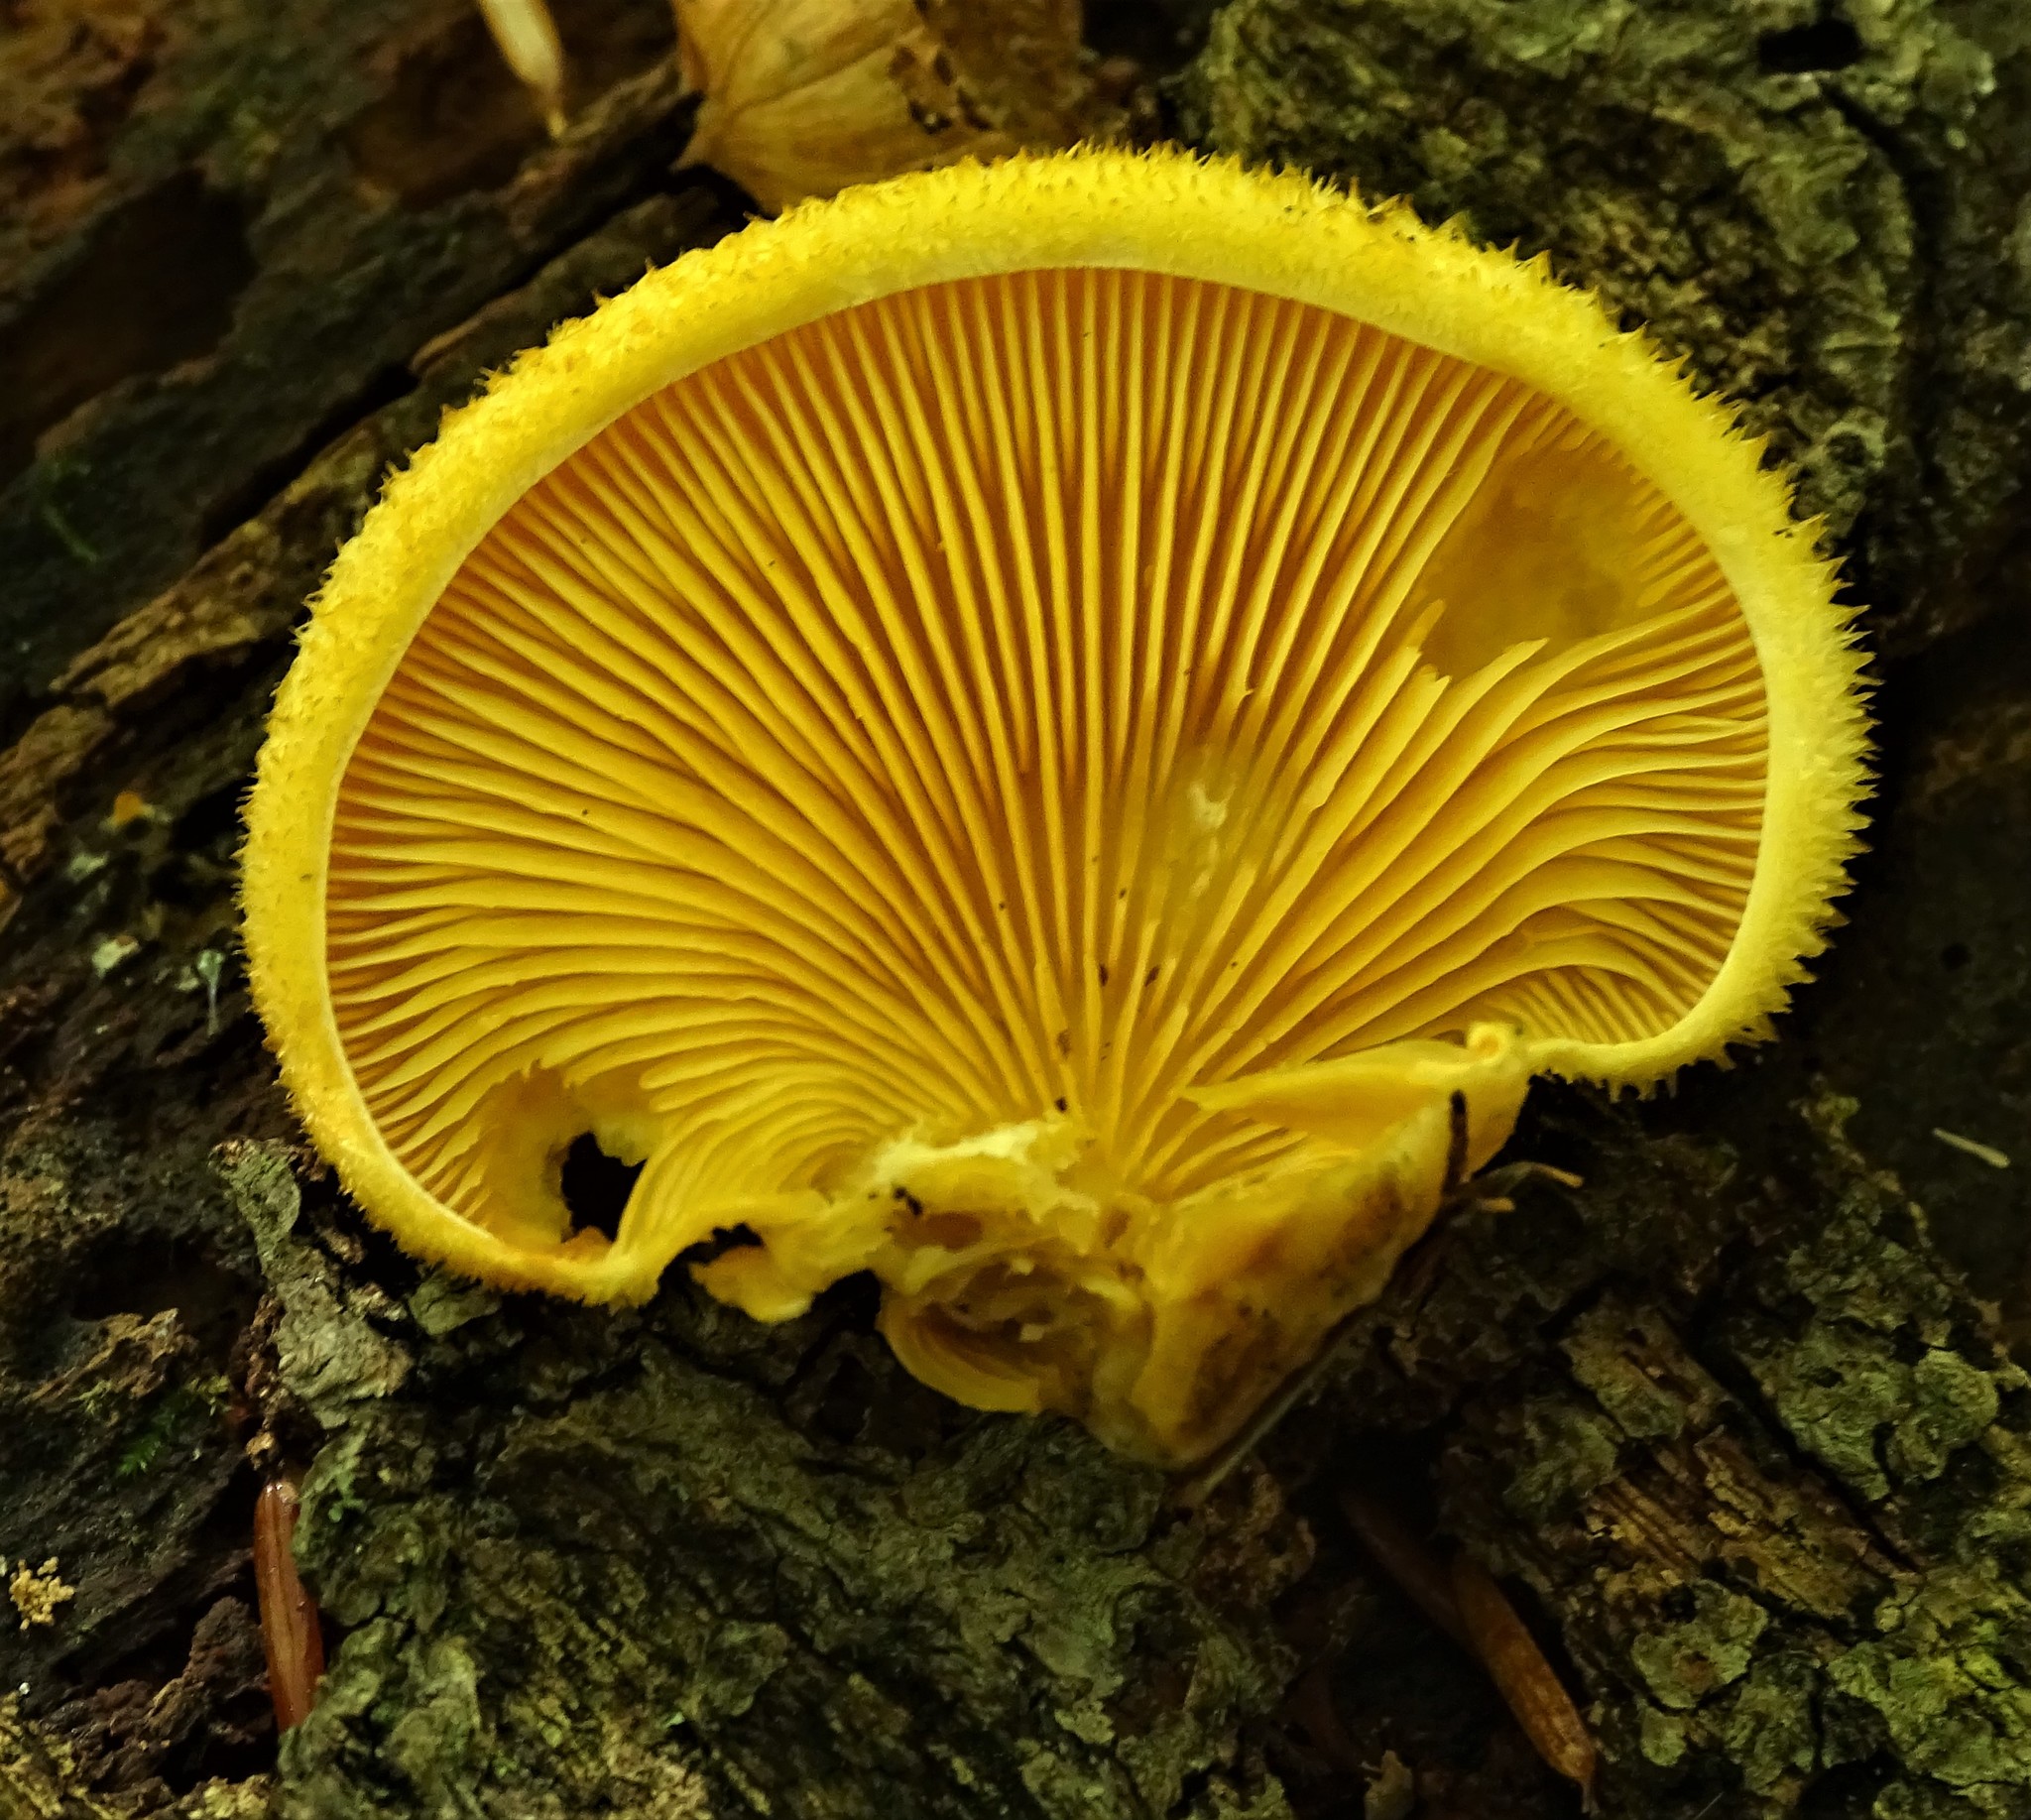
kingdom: Fungi
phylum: Basidiomycota
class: Agaricomycetes
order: Agaricales
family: Phyllotopsidaceae
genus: Phyllotopsis
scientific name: Phyllotopsis nidulans
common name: Orange mock oyster
